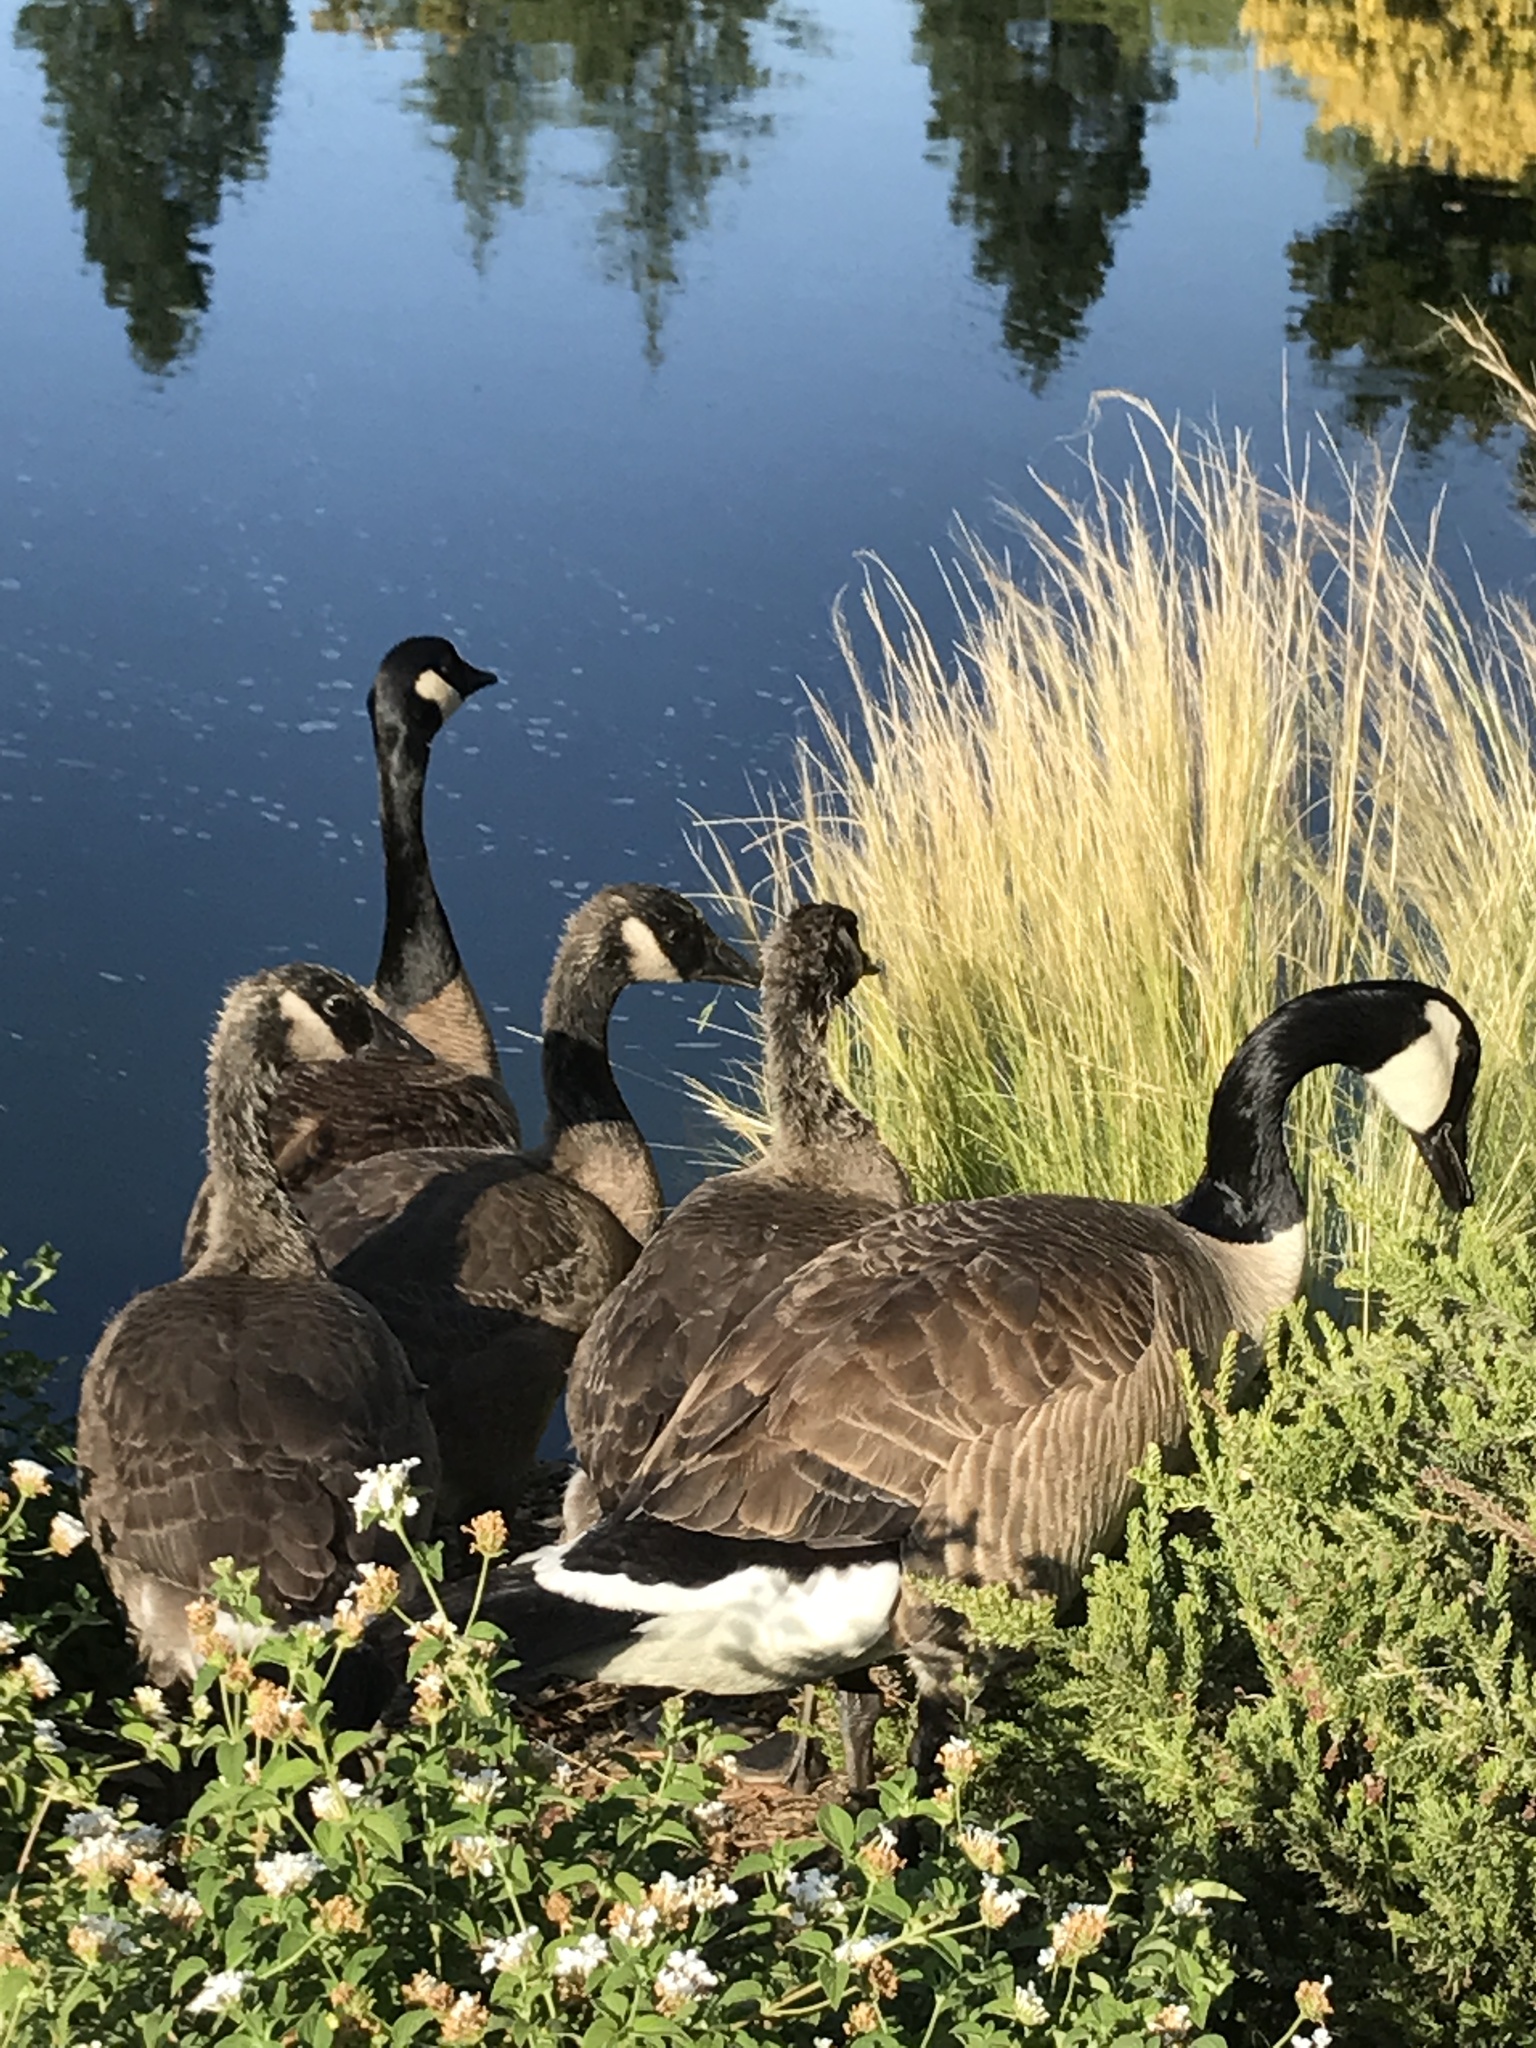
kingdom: Animalia
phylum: Chordata
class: Aves
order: Anseriformes
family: Anatidae
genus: Branta
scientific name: Branta canadensis
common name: Canada goose
